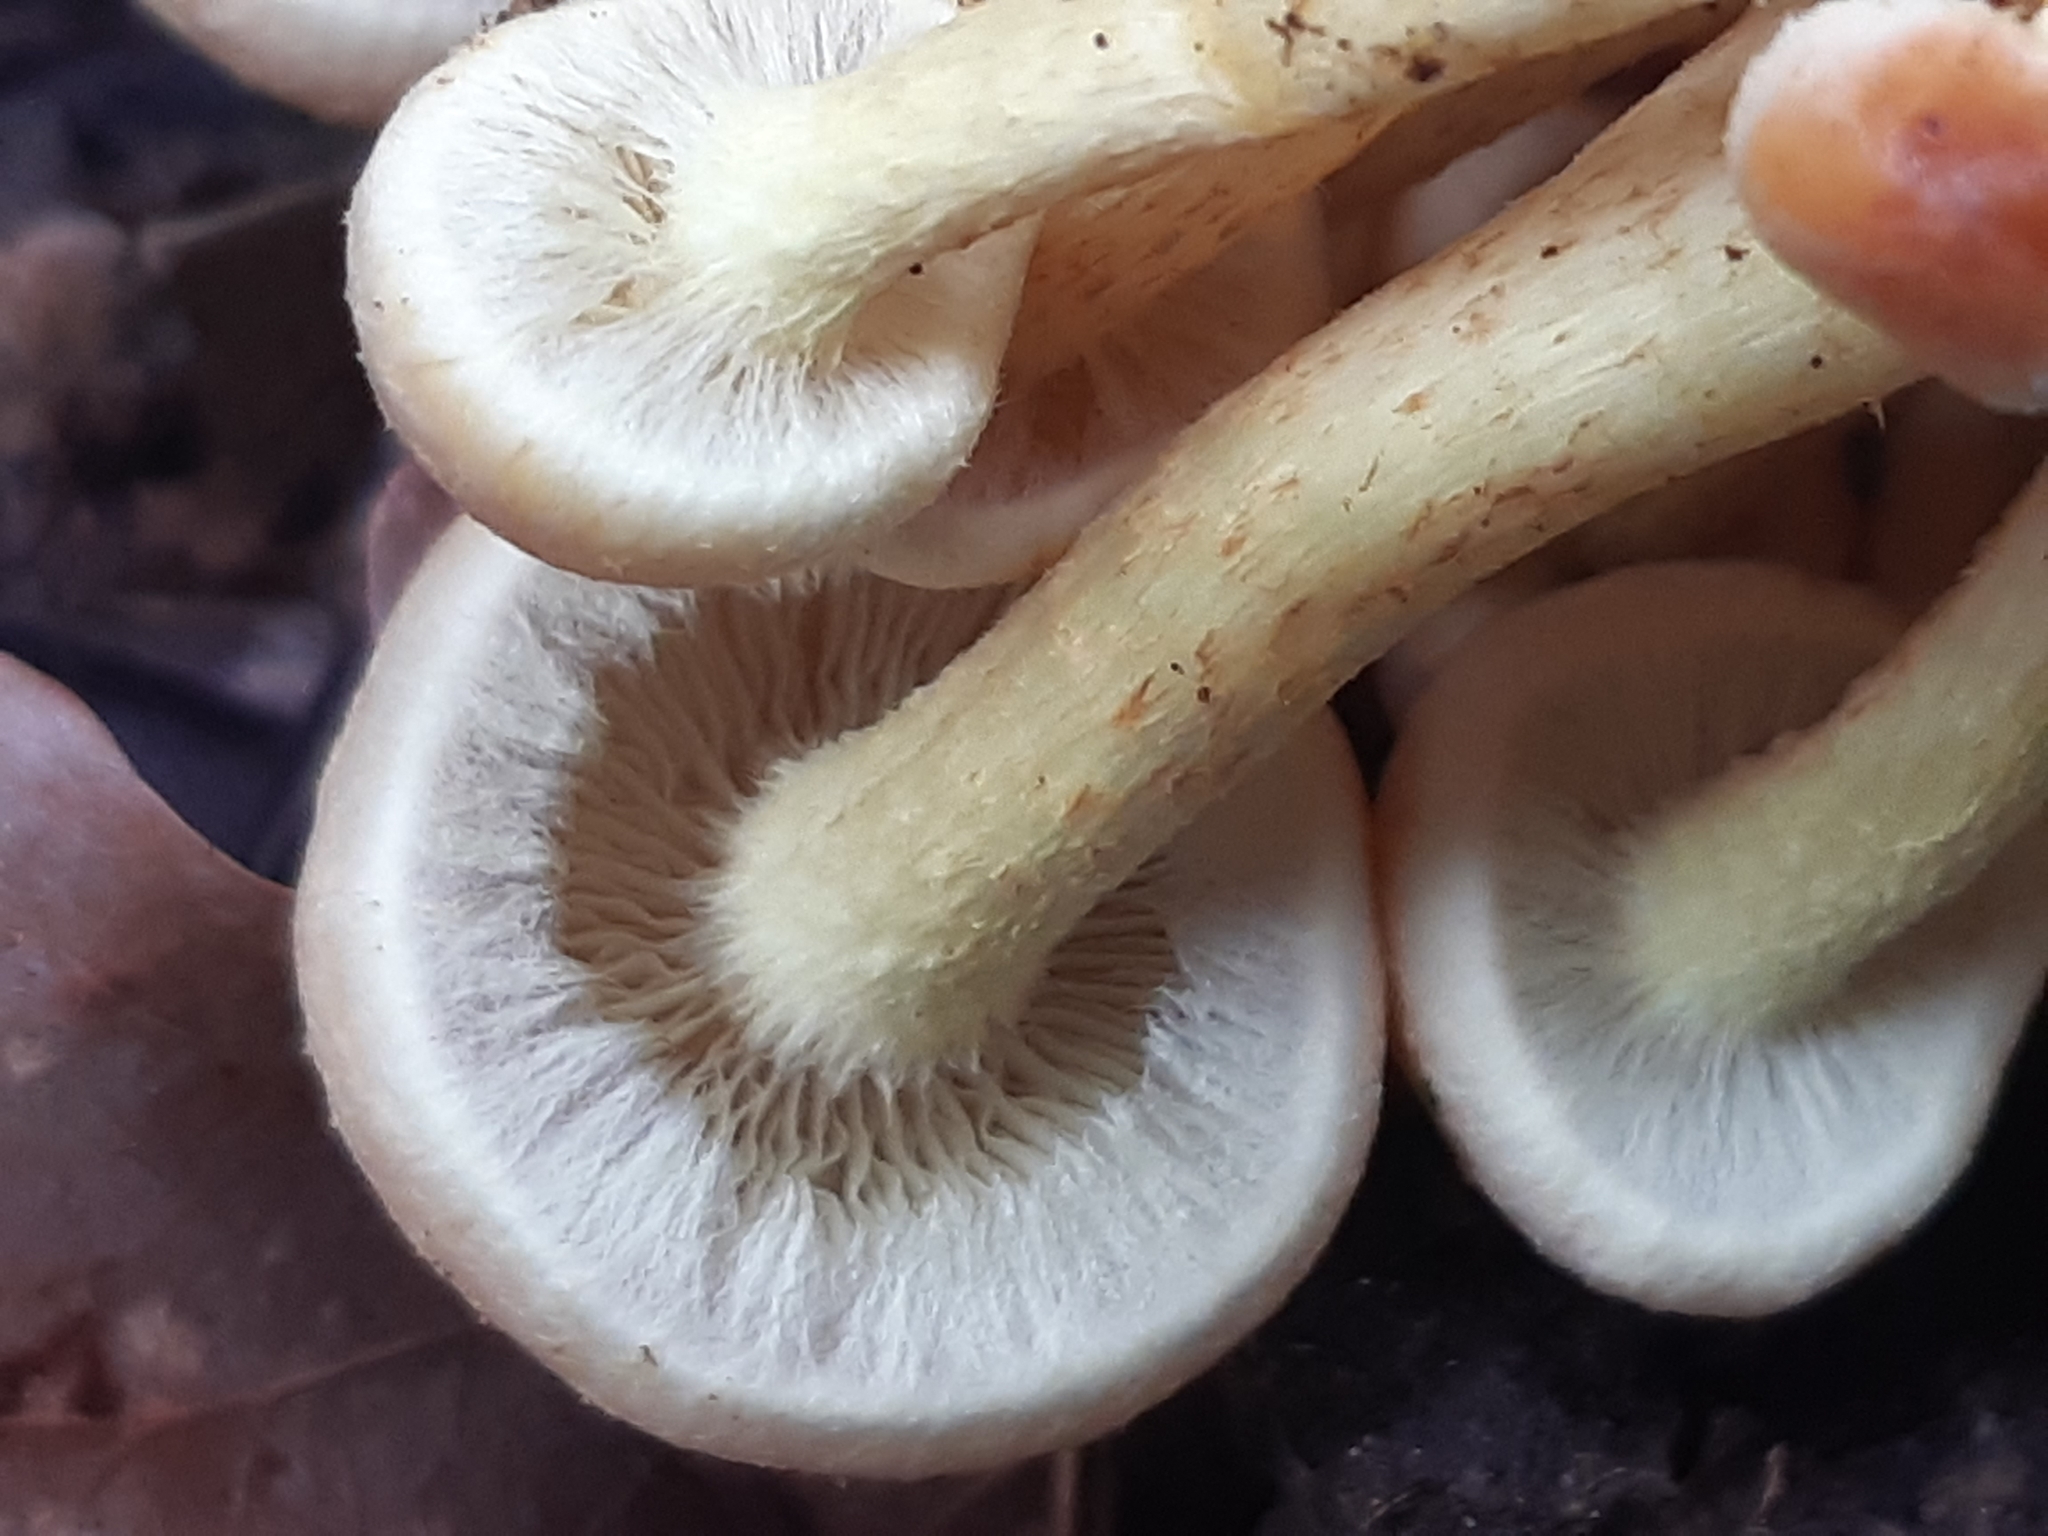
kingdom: Fungi
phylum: Basidiomycota
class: Agaricomycetes
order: Agaricales
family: Strophariaceae
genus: Hypholoma
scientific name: Hypholoma fasciculare
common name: Sulphur tuft
